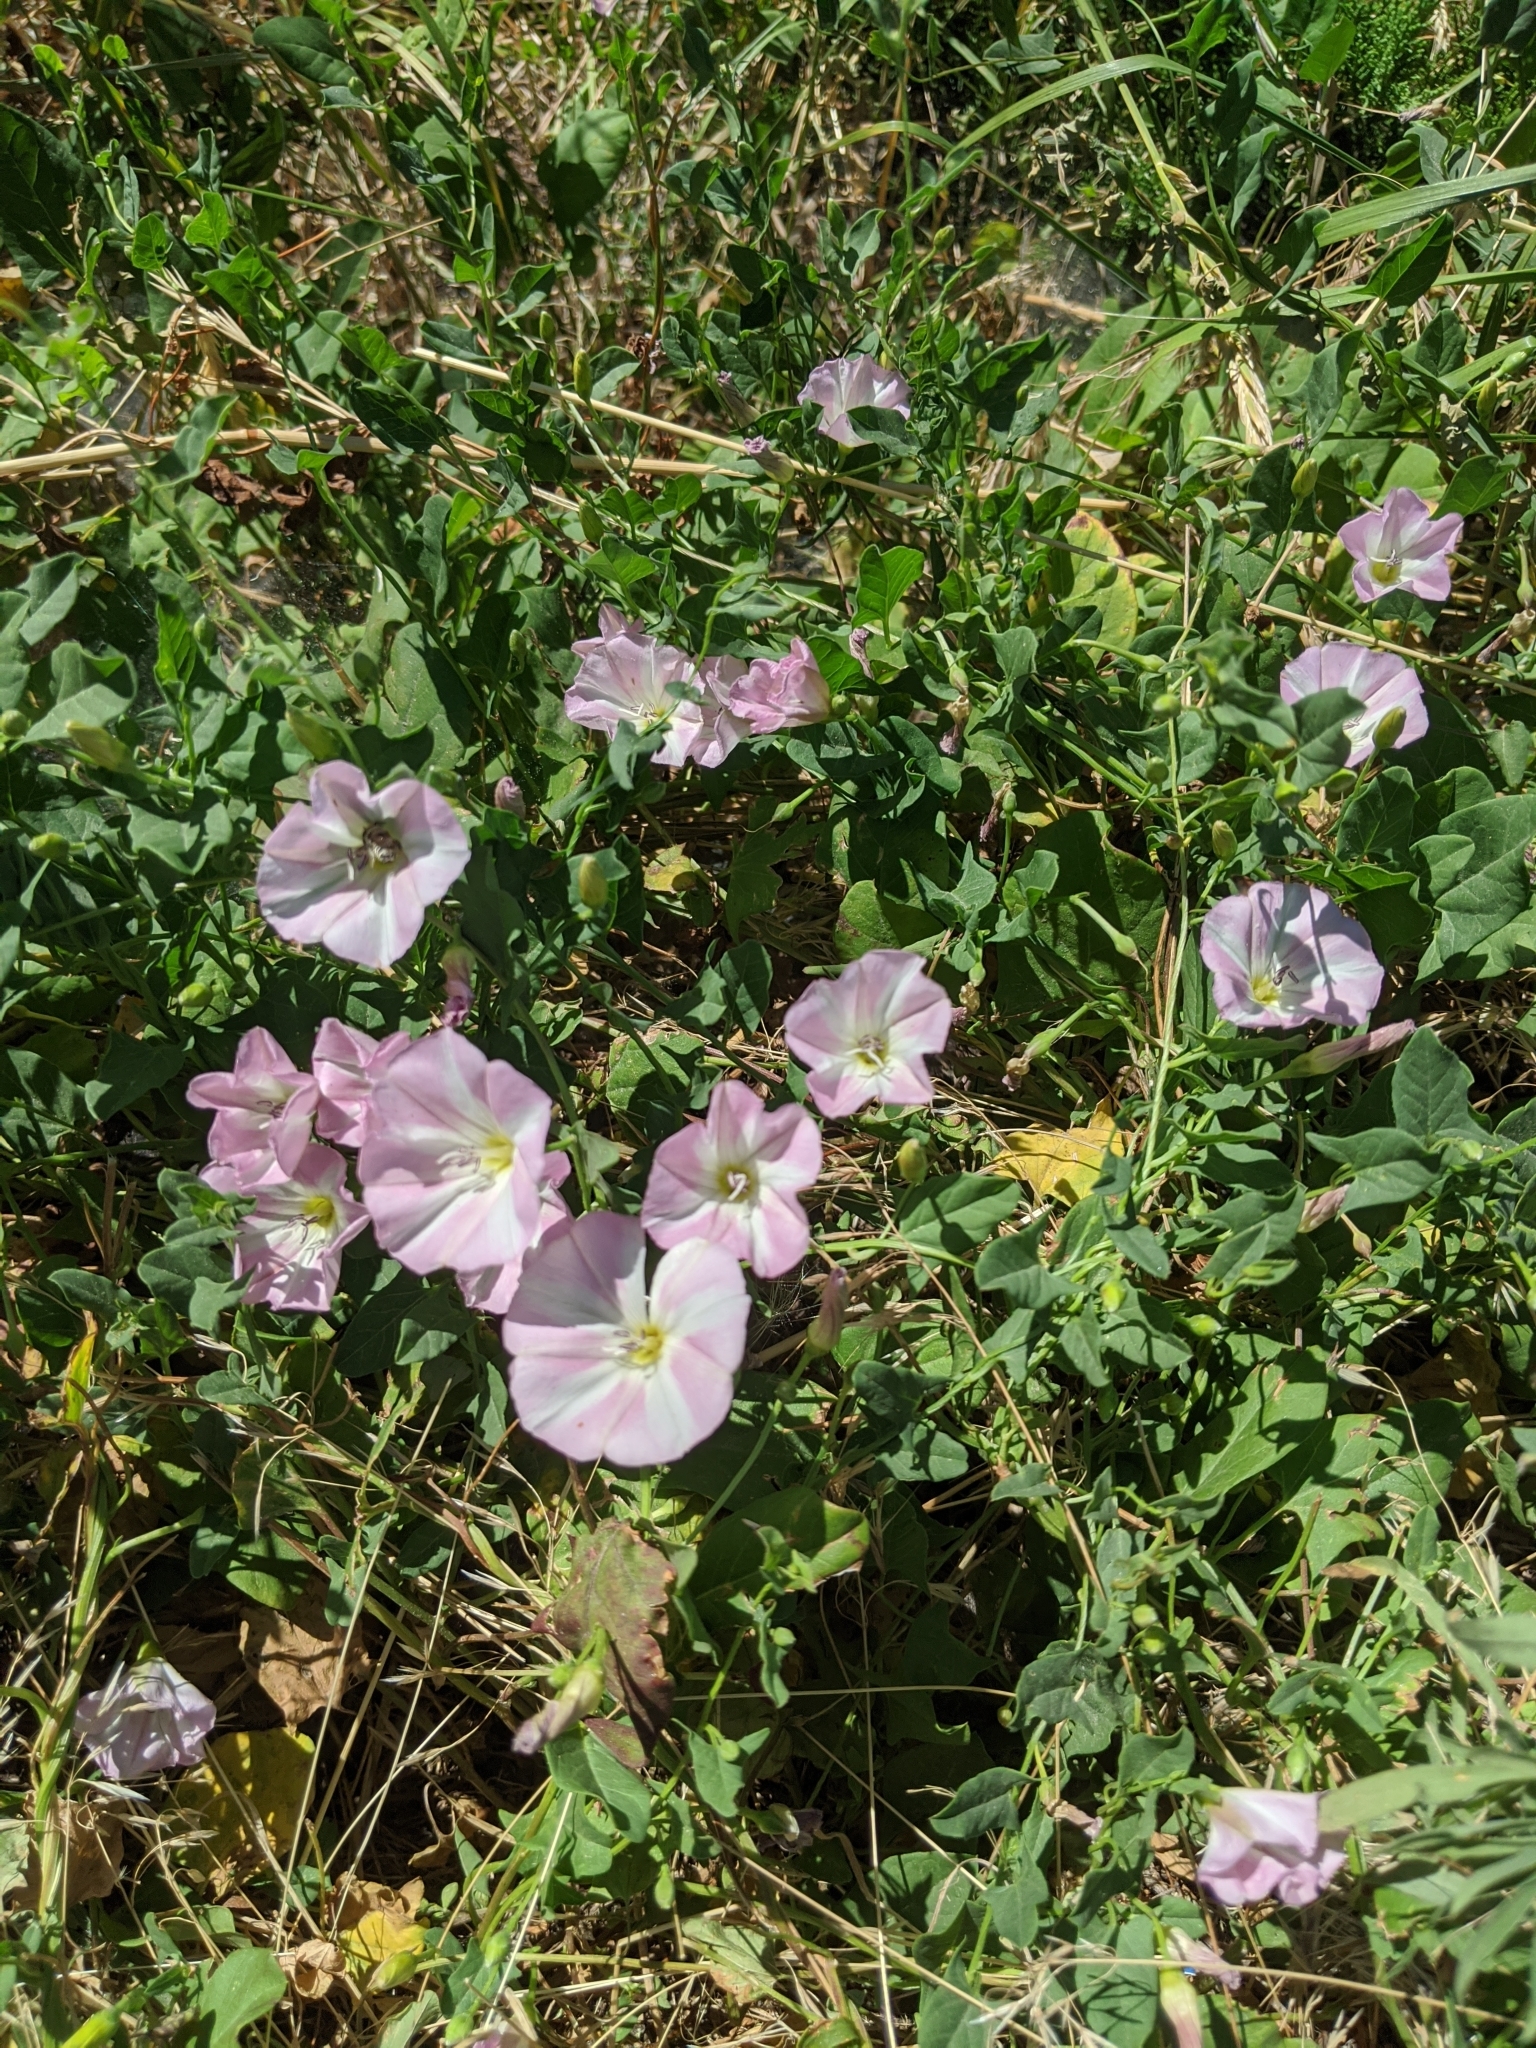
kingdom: Plantae
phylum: Tracheophyta
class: Magnoliopsida
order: Solanales
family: Convolvulaceae
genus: Convolvulus
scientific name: Convolvulus arvensis
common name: Field bindweed
